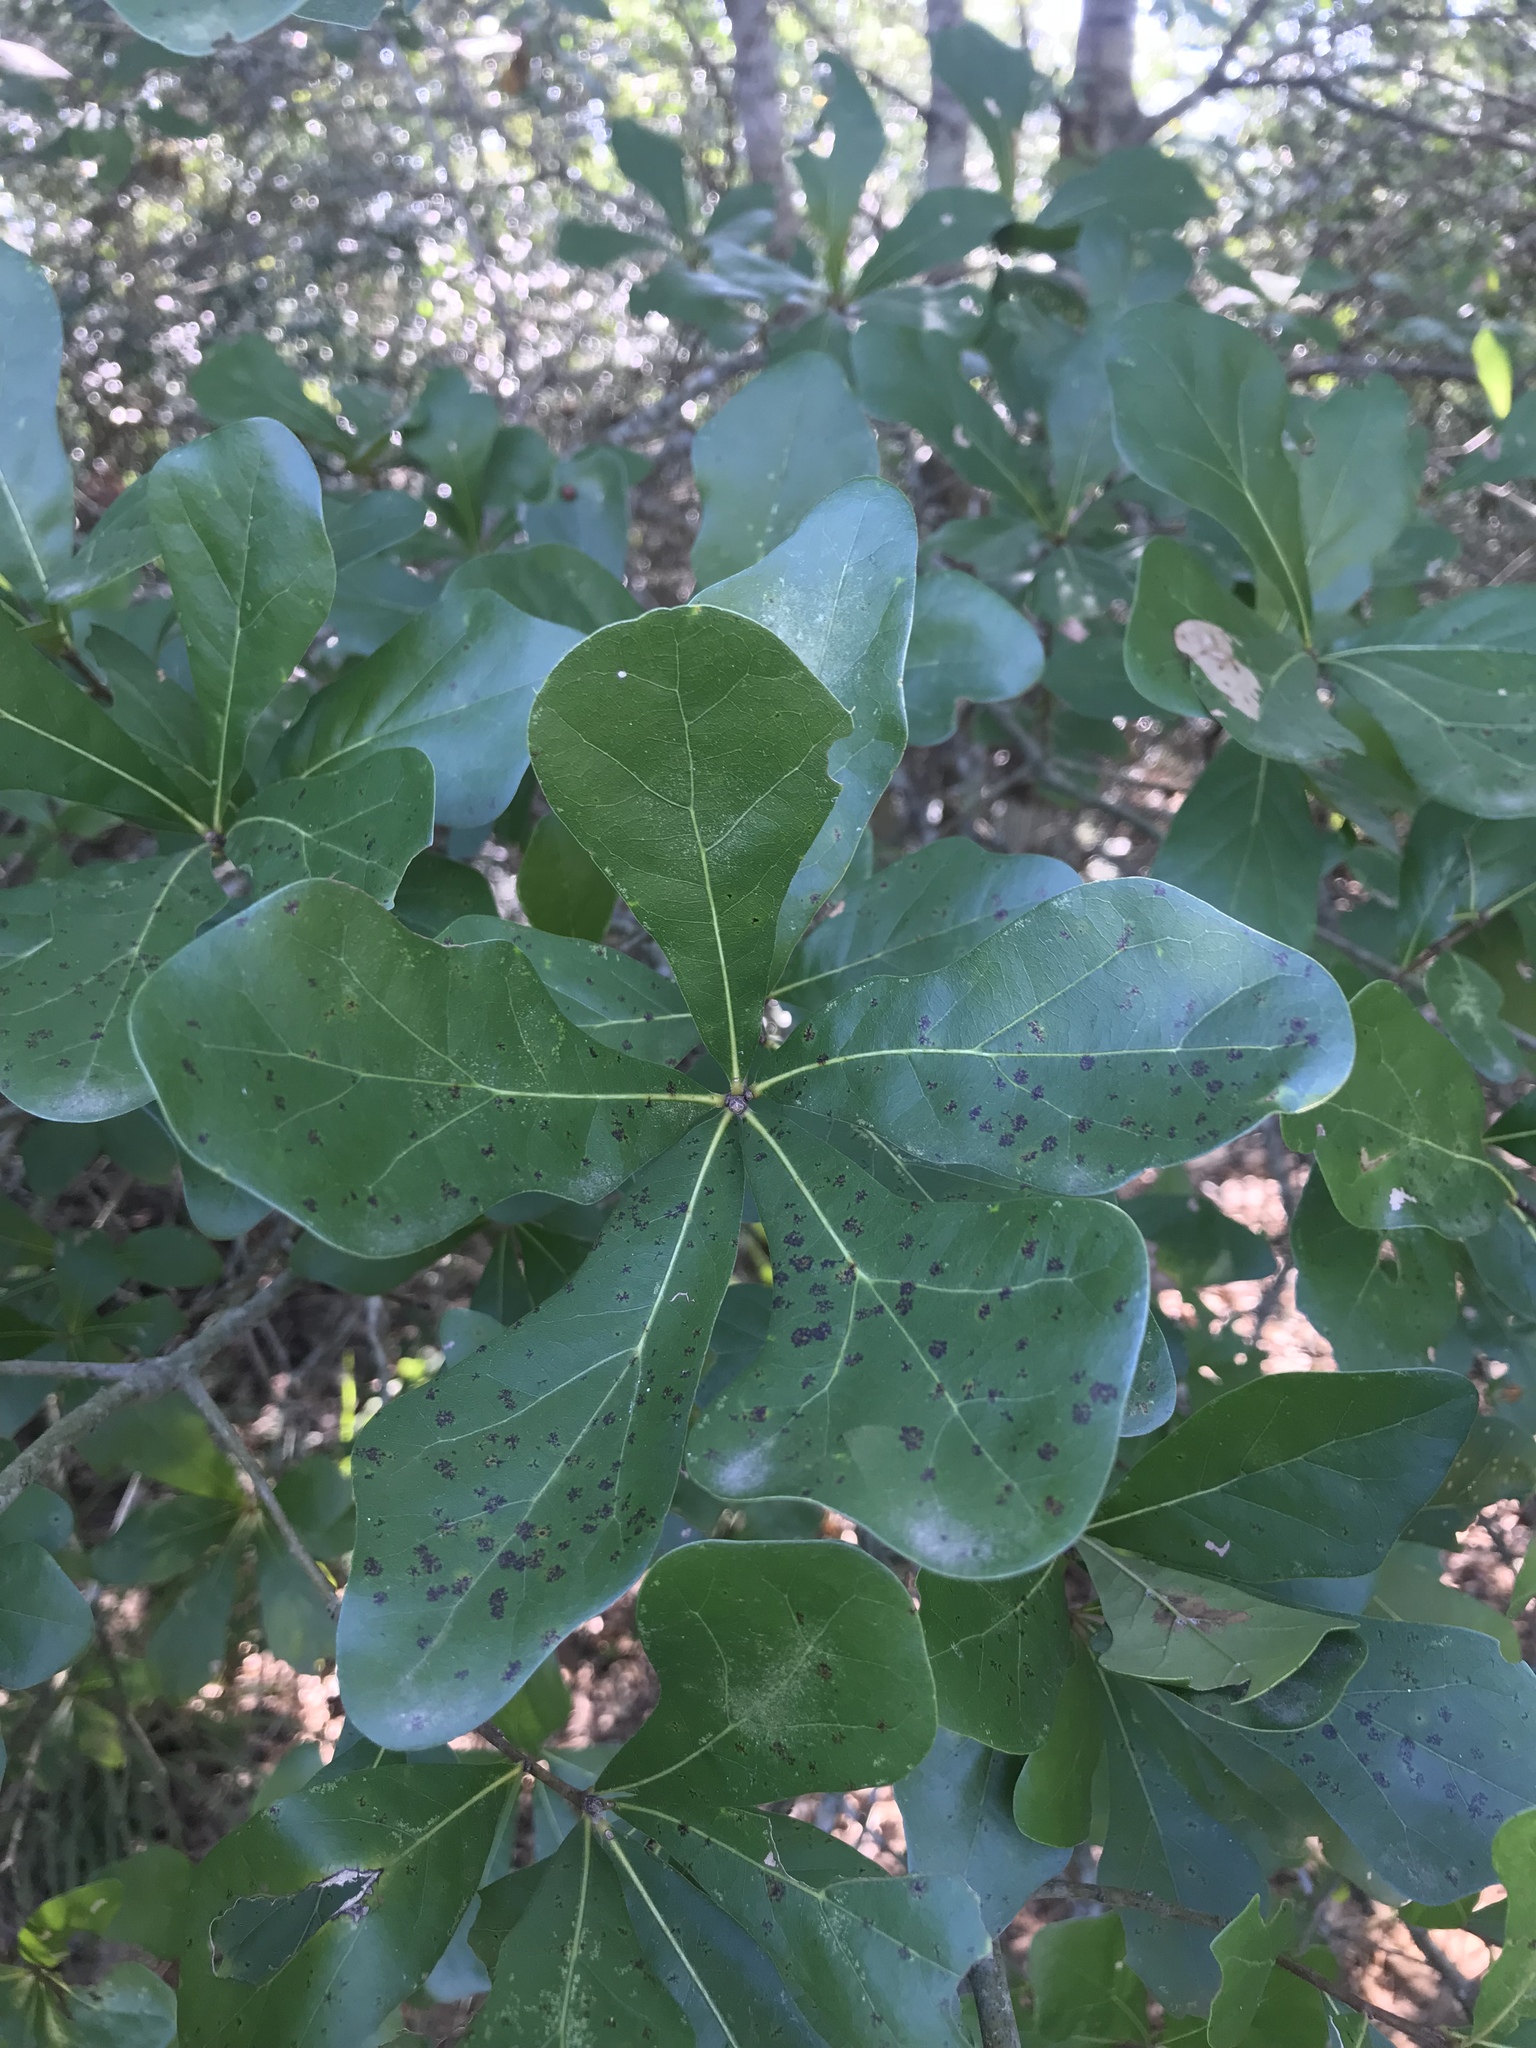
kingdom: Plantae
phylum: Tracheophyta
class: Magnoliopsida
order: Fagales
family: Fagaceae
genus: Quercus
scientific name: Quercus nigra
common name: Water oak
